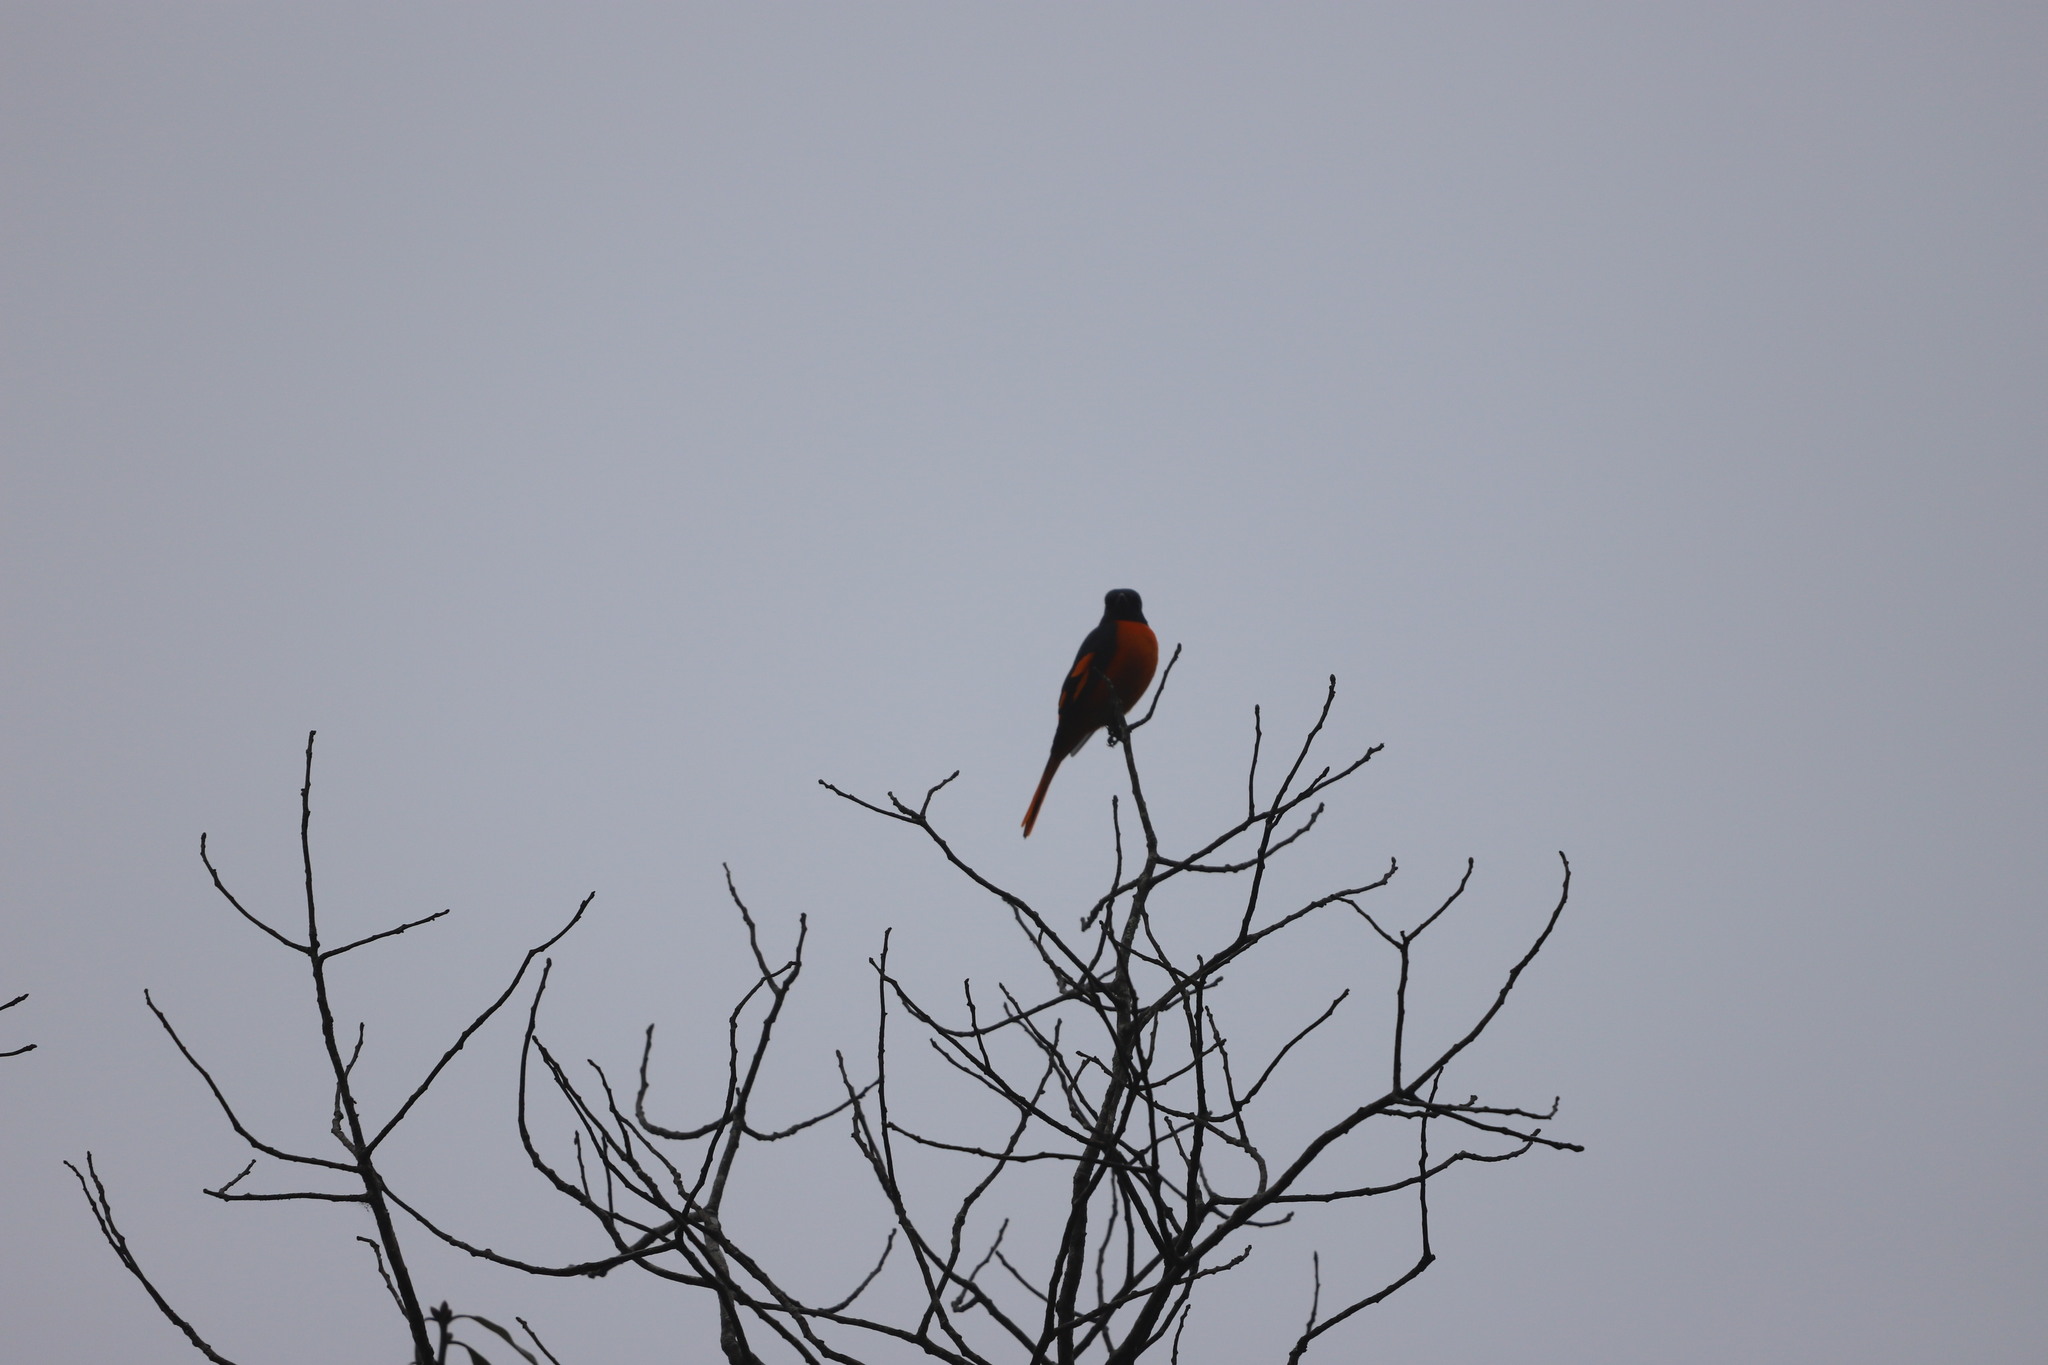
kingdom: Animalia
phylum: Chordata
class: Aves
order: Passeriformes
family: Campephagidae
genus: Pericrocotus
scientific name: Pericrocotus flammeus
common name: Orange minivet
